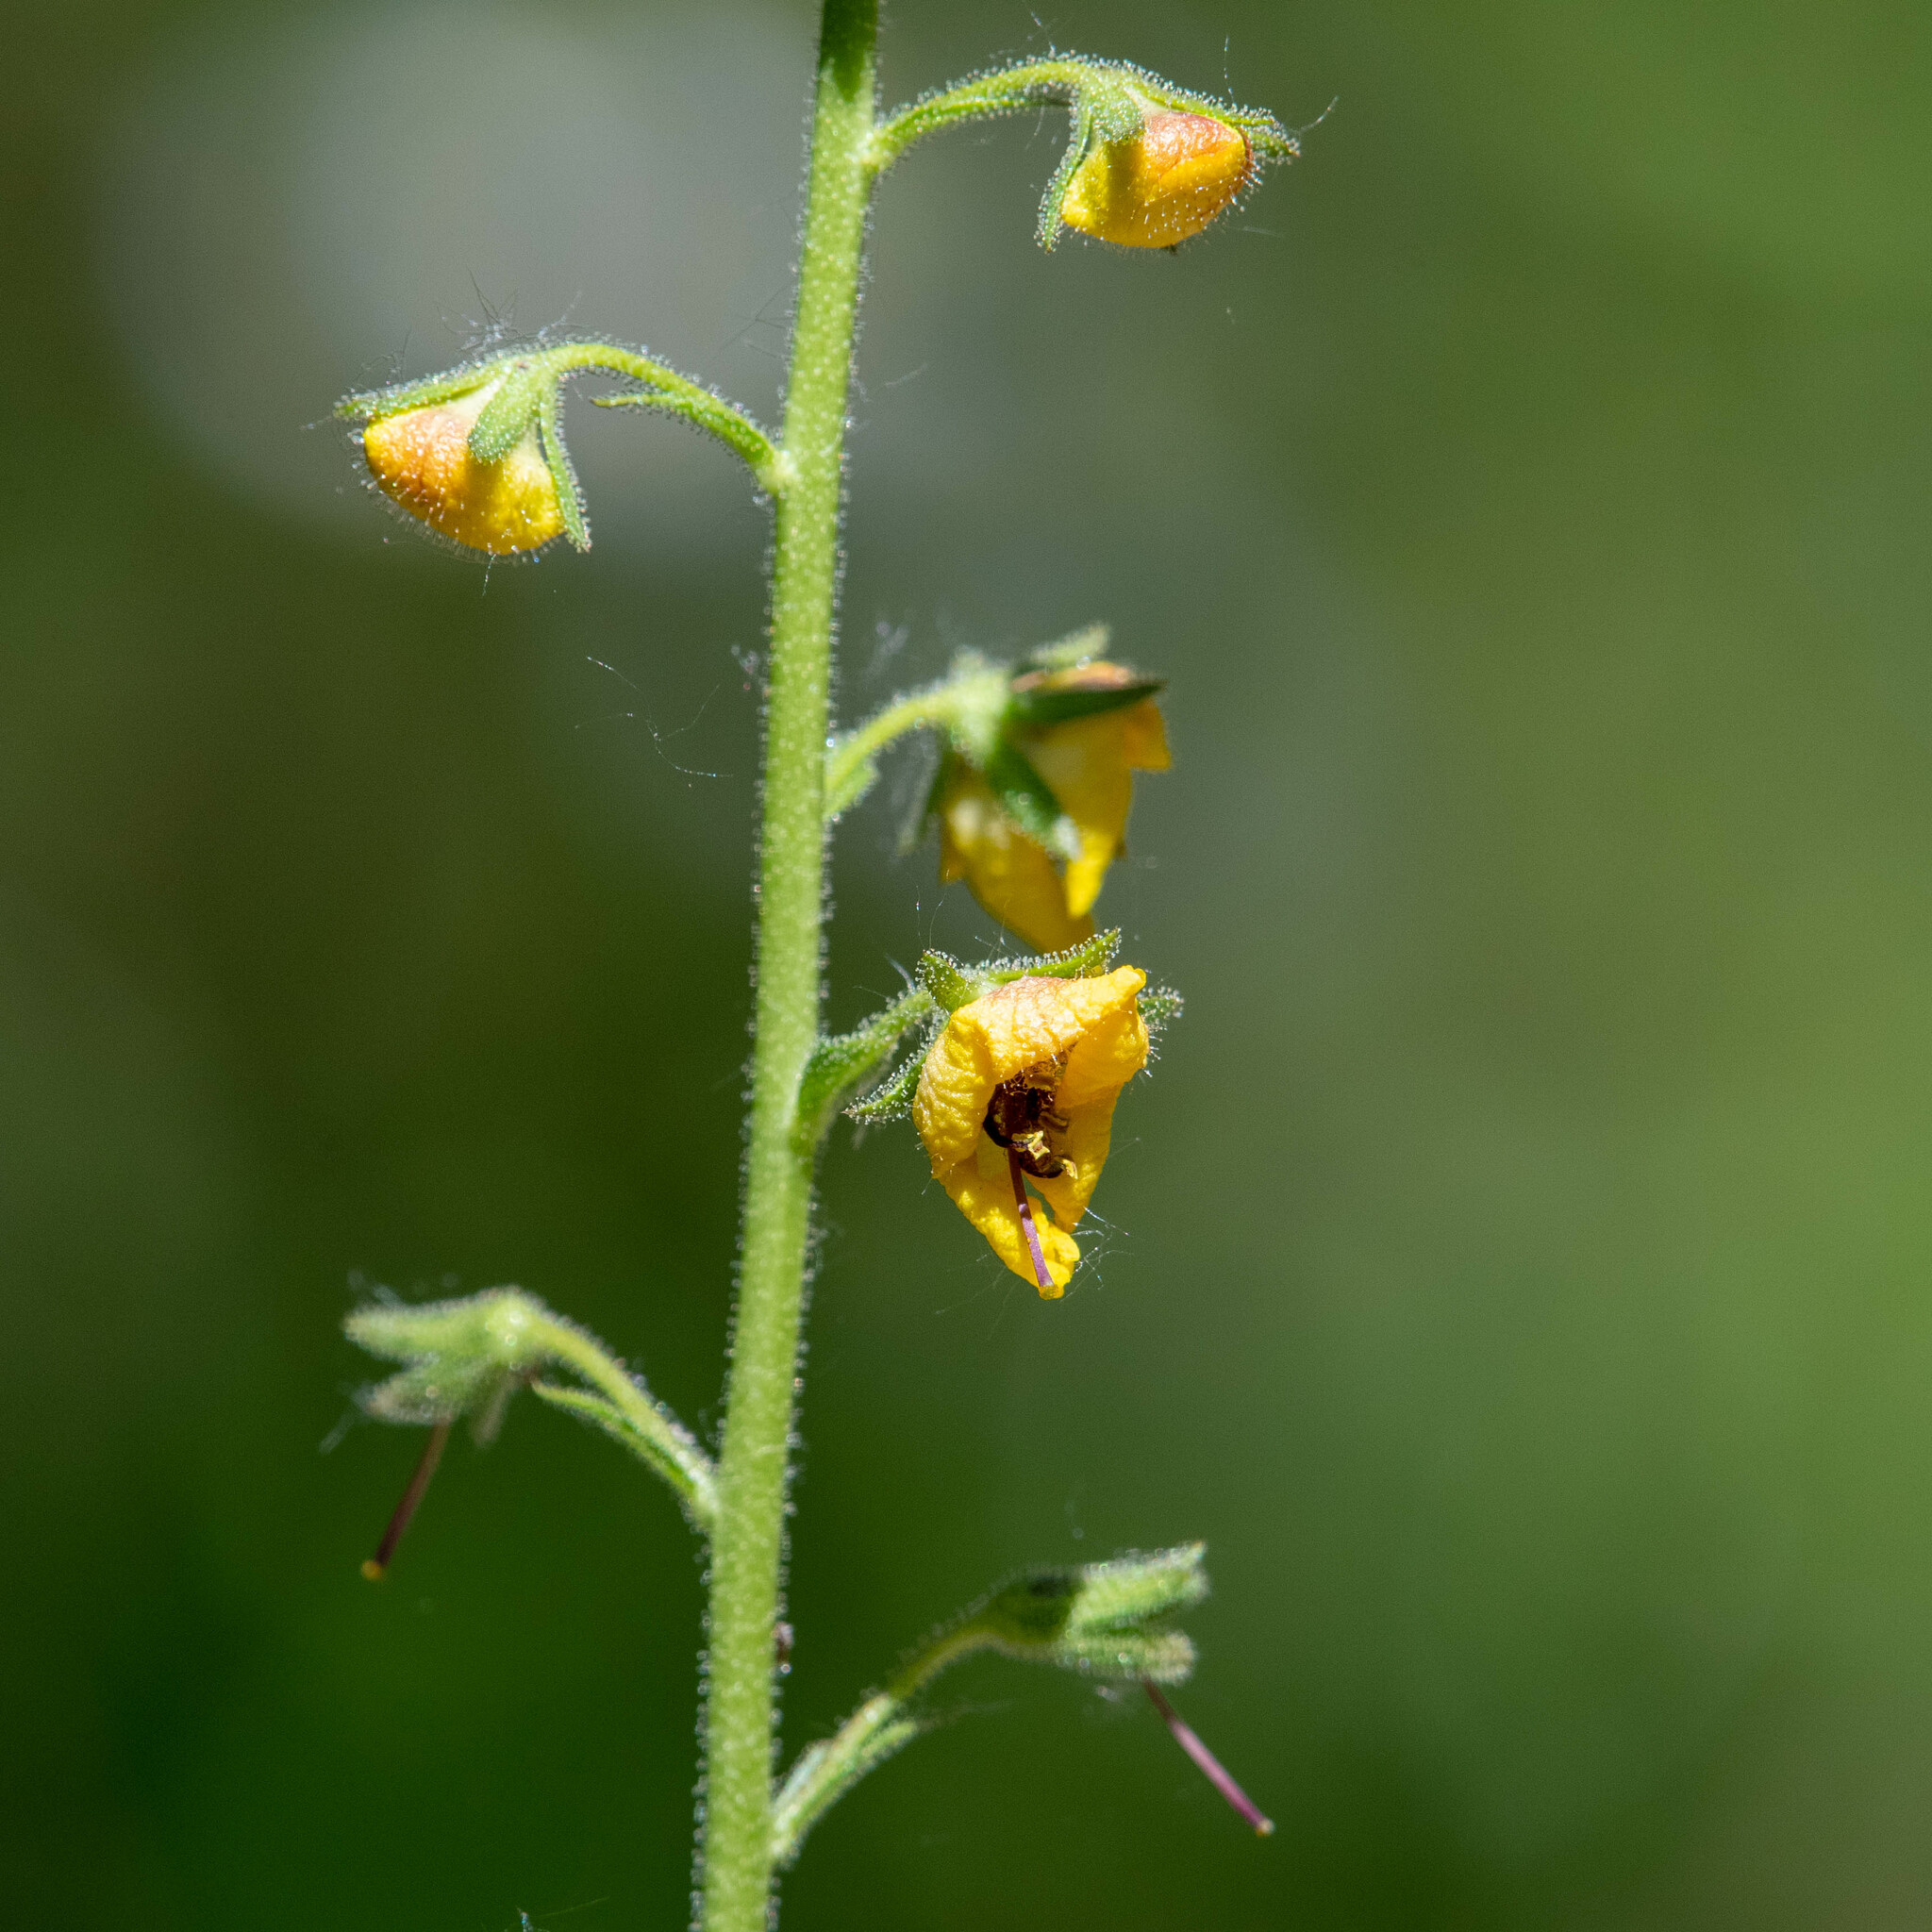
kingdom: Plantae
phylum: Tracheophyta
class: Magnoliopsida
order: Lamiales
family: Scrophulariaceae
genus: Verbascum
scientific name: Verbascum blattaria
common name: Moth mullein
